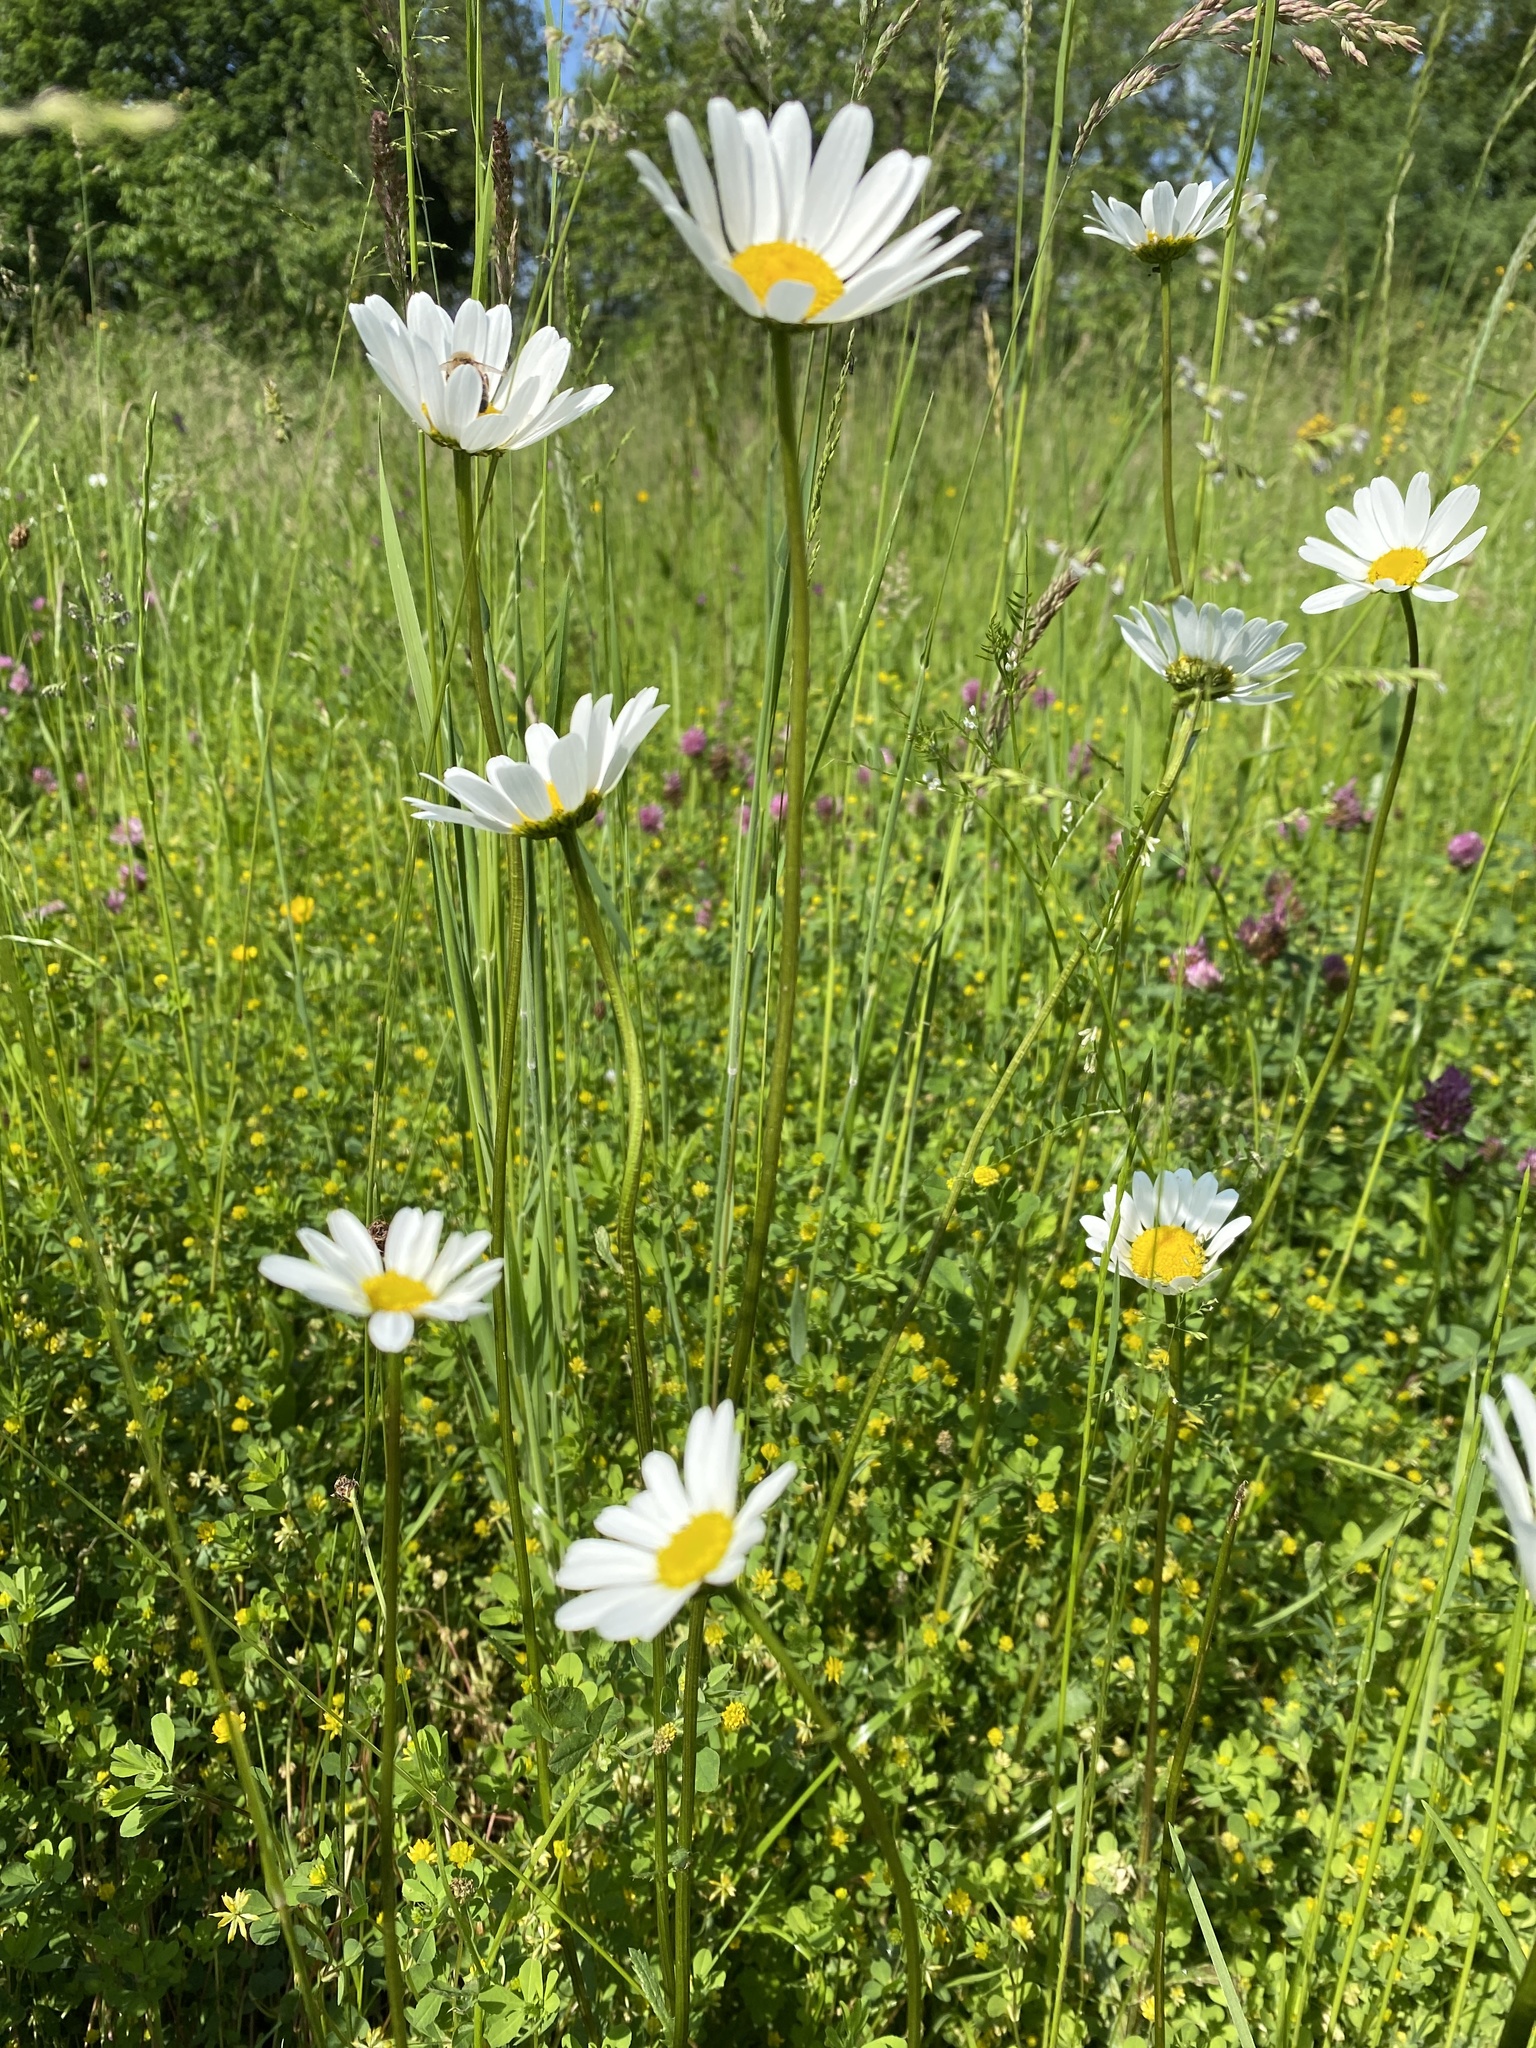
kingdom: Plantae
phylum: Tracheophyta
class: Magnoliopsida
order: Asterales
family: Asteraceae
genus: Leucanthemum
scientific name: Leucanthemum vulgare
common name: Oxeye daisy
